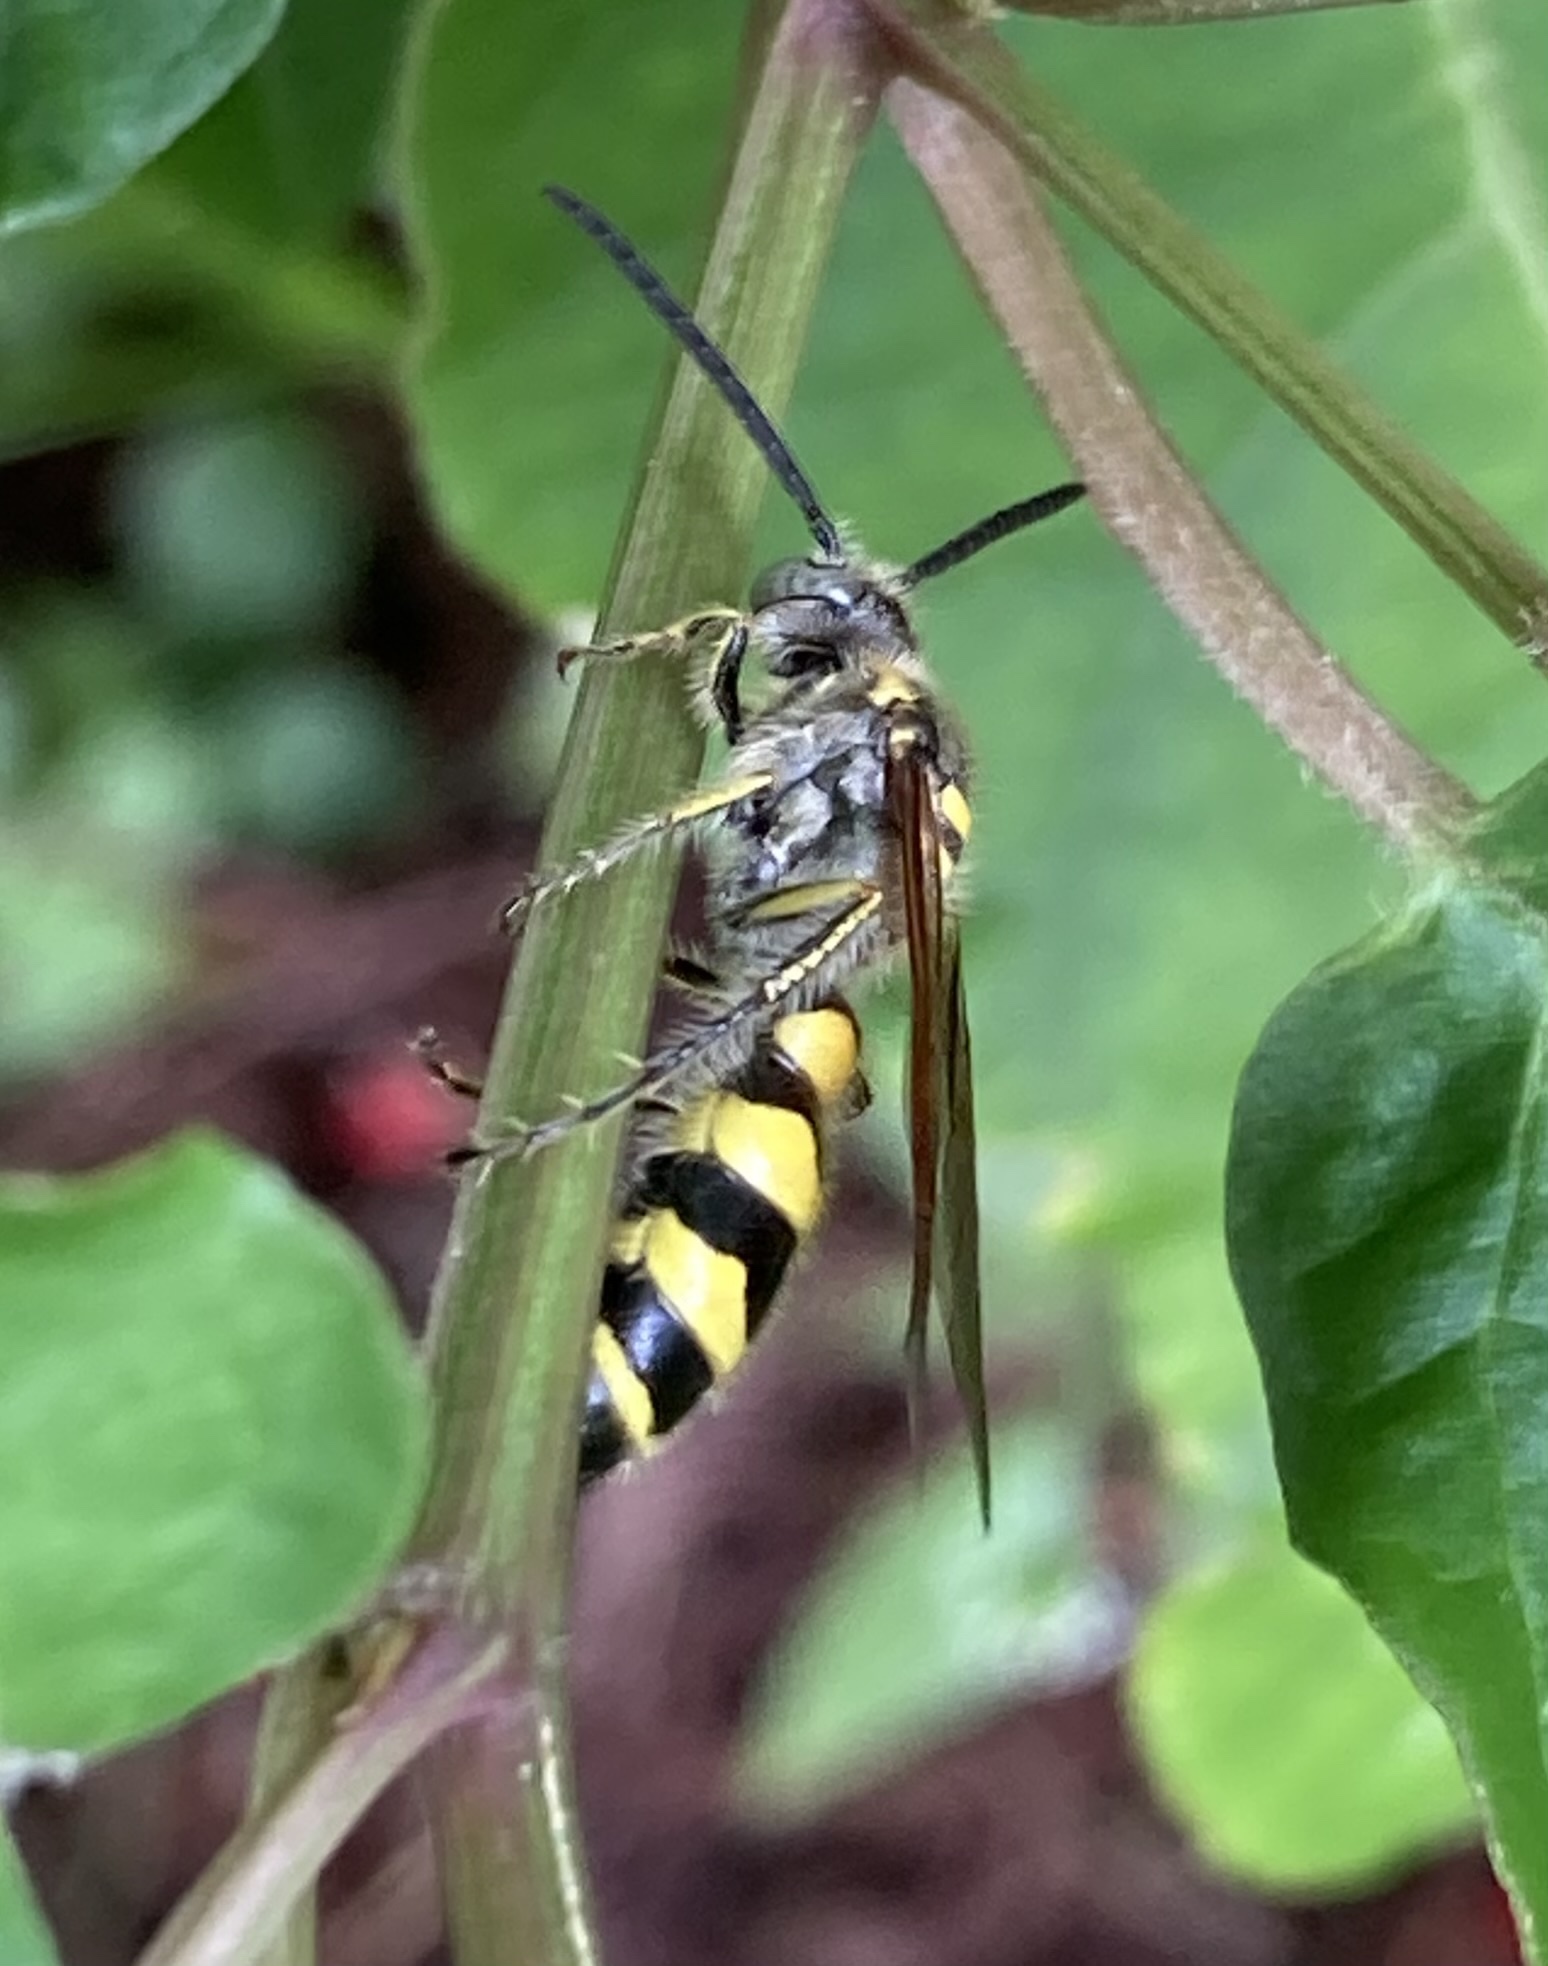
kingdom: Animalia
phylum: Arthropoda
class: Insecta
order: Hymenoptera
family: Scoliidae
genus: Dielis
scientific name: Dielis
